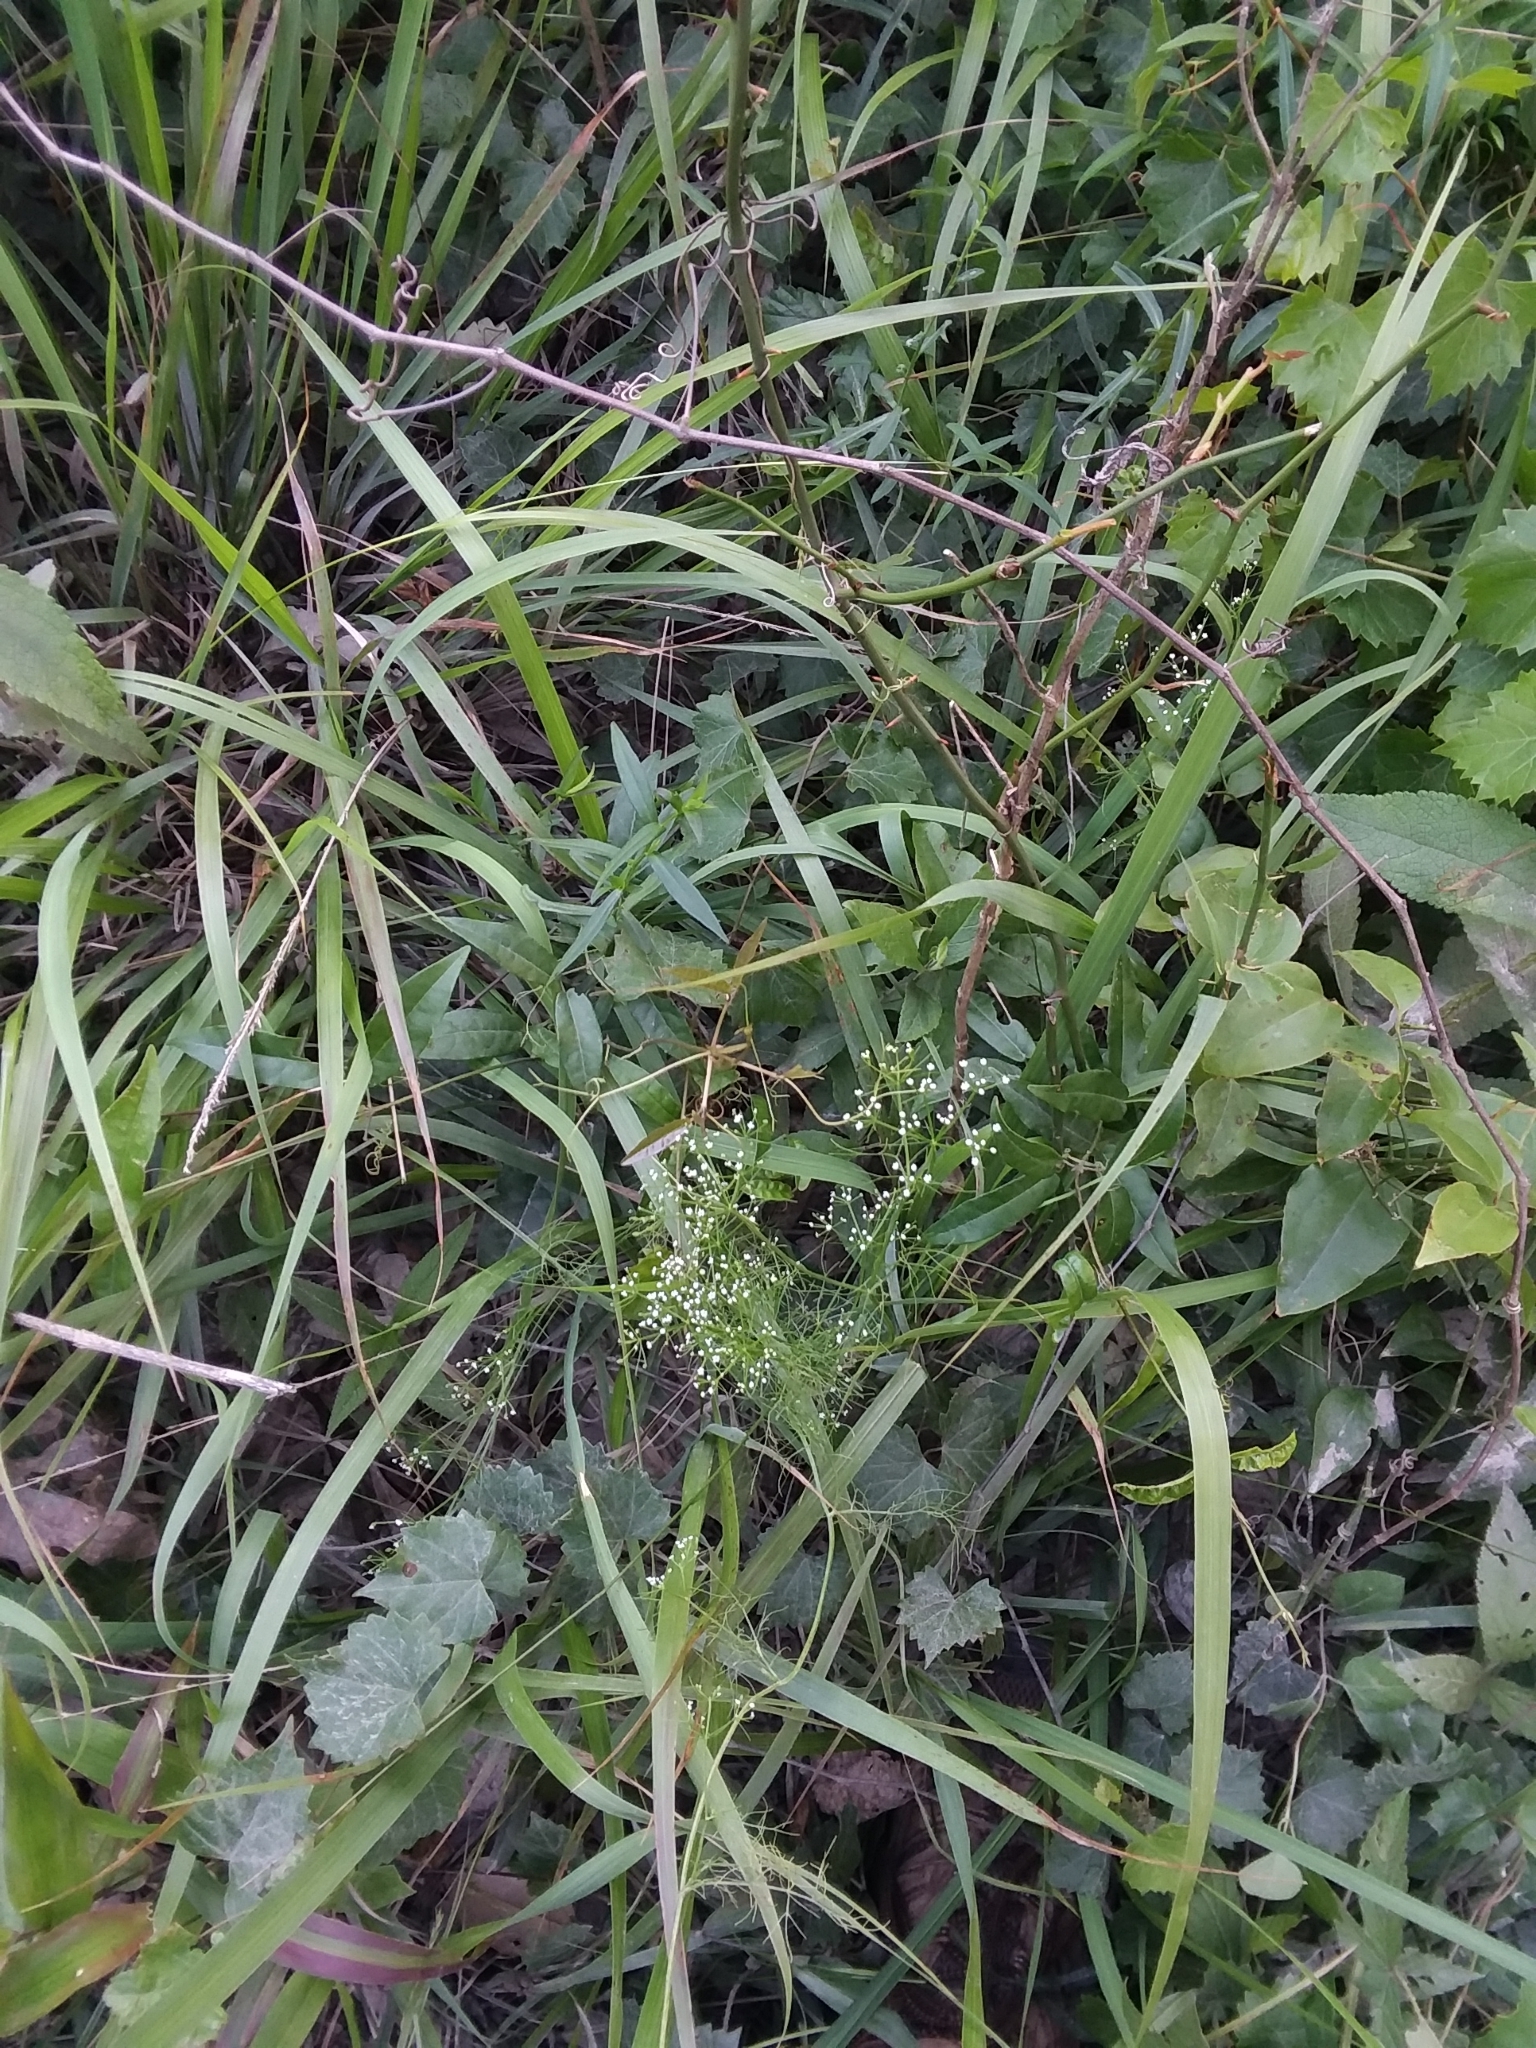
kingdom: Plantae
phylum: Tracheophyta
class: Magnoliopsida
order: Apiales
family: Apiaceae
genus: Ptilimnium
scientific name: Ptilimnium capillaceum
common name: Herbwilliam
